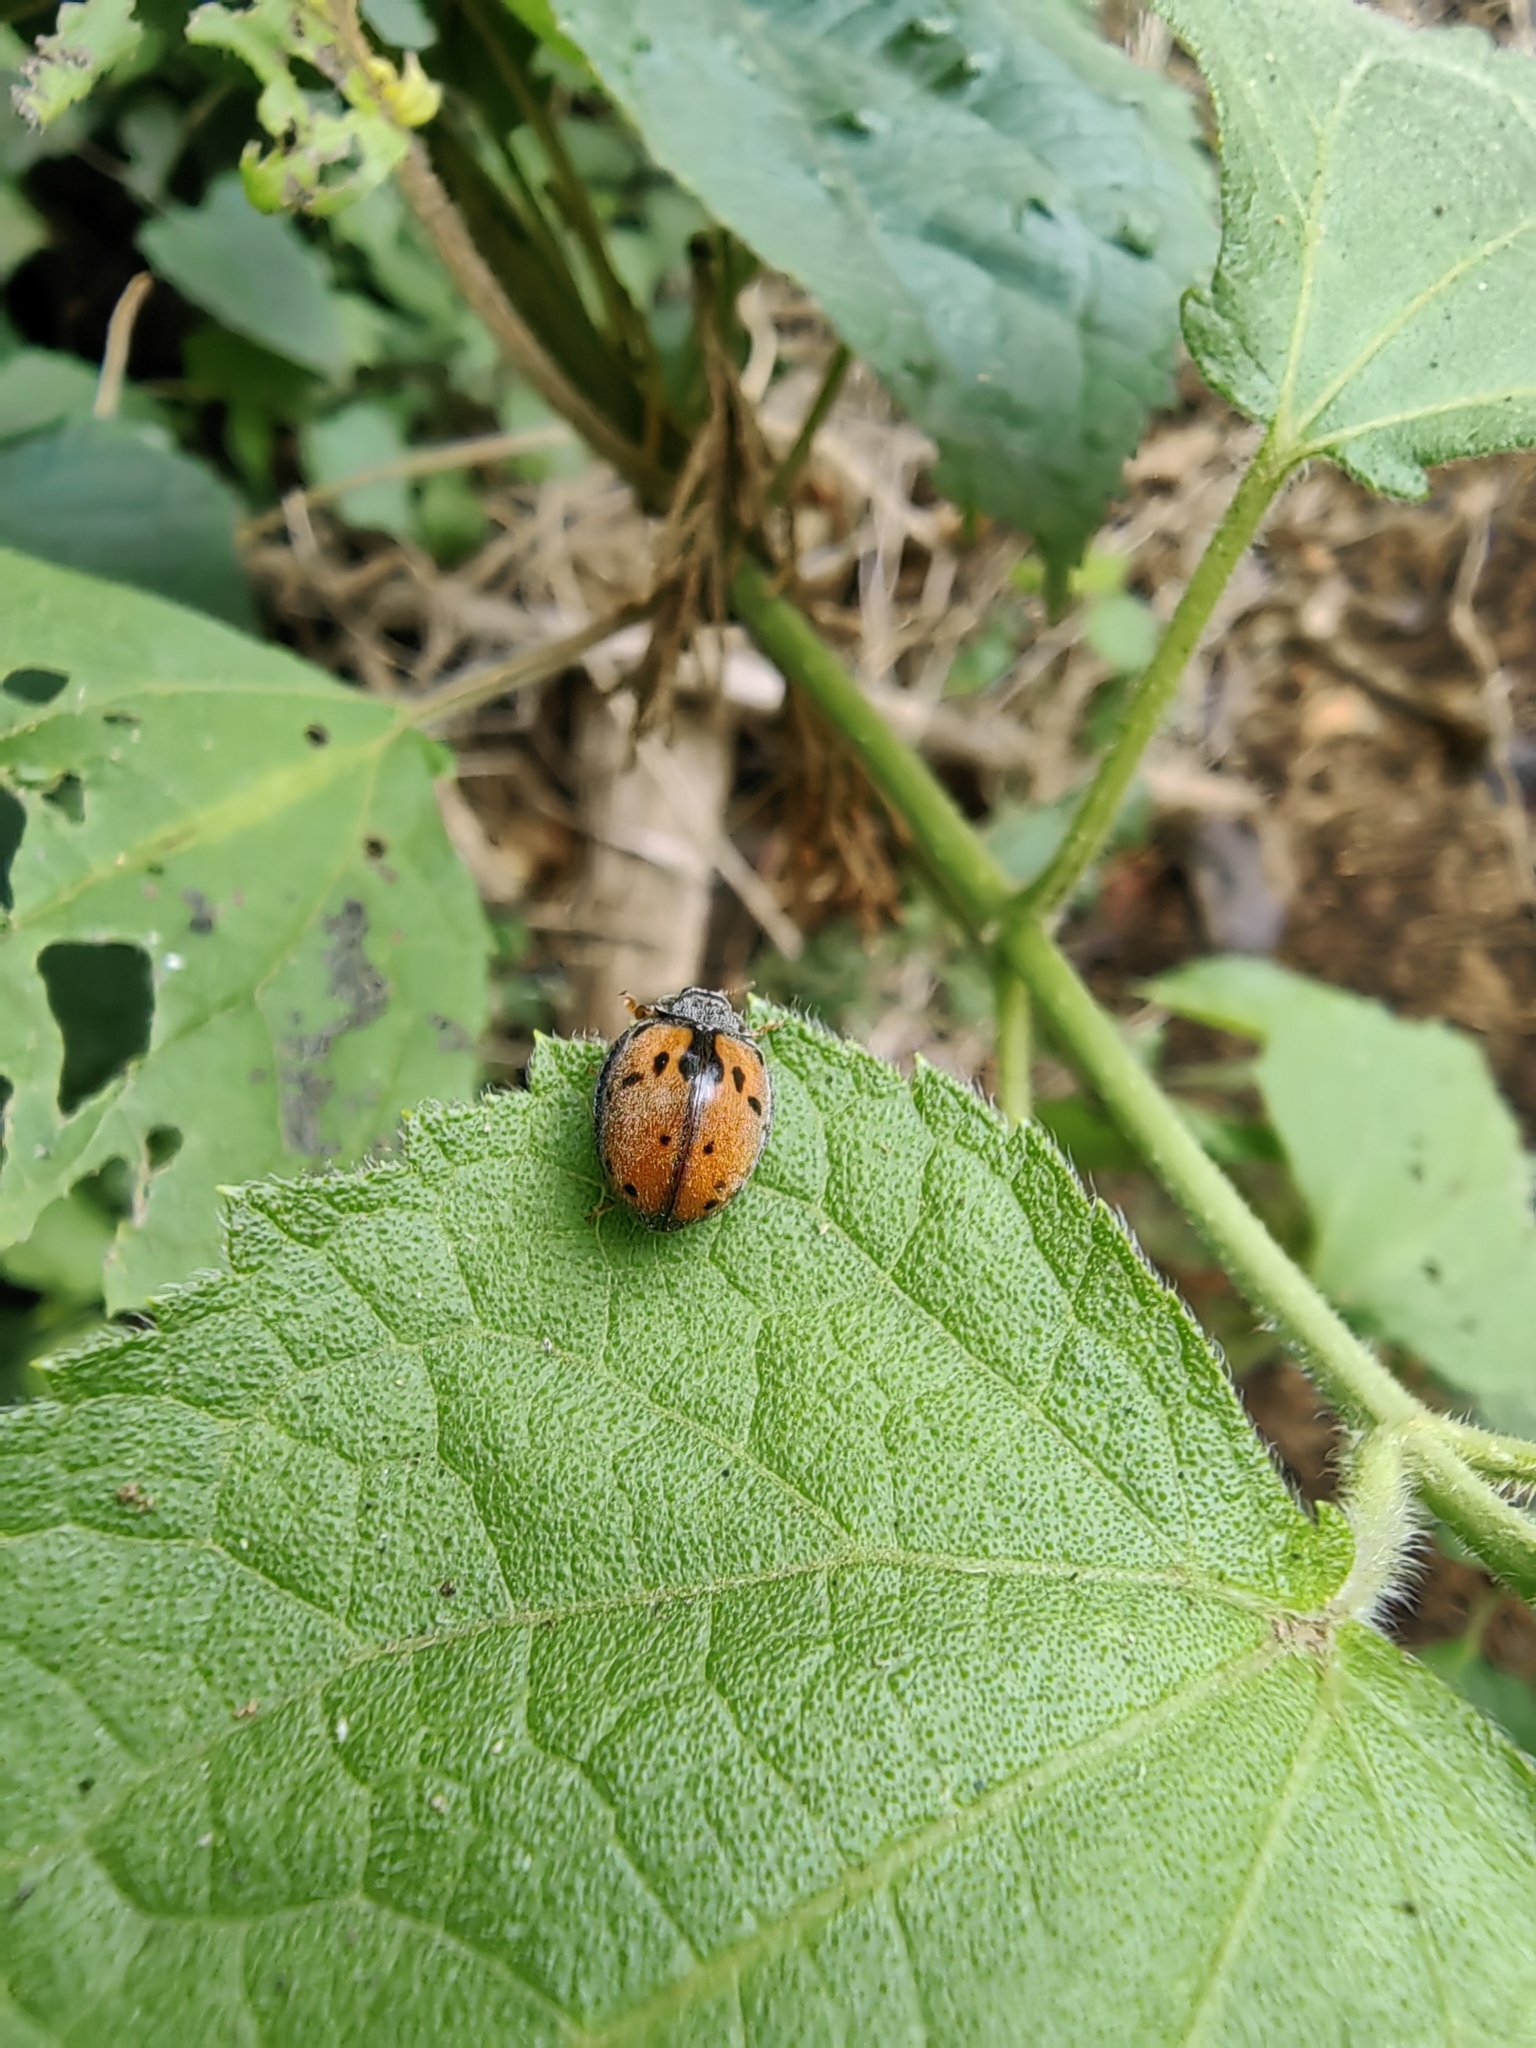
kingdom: Animalia
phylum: Arthropoda
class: Insecta
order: Coleoptera
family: Coccinellidae
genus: Epilachna
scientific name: Epilachna
